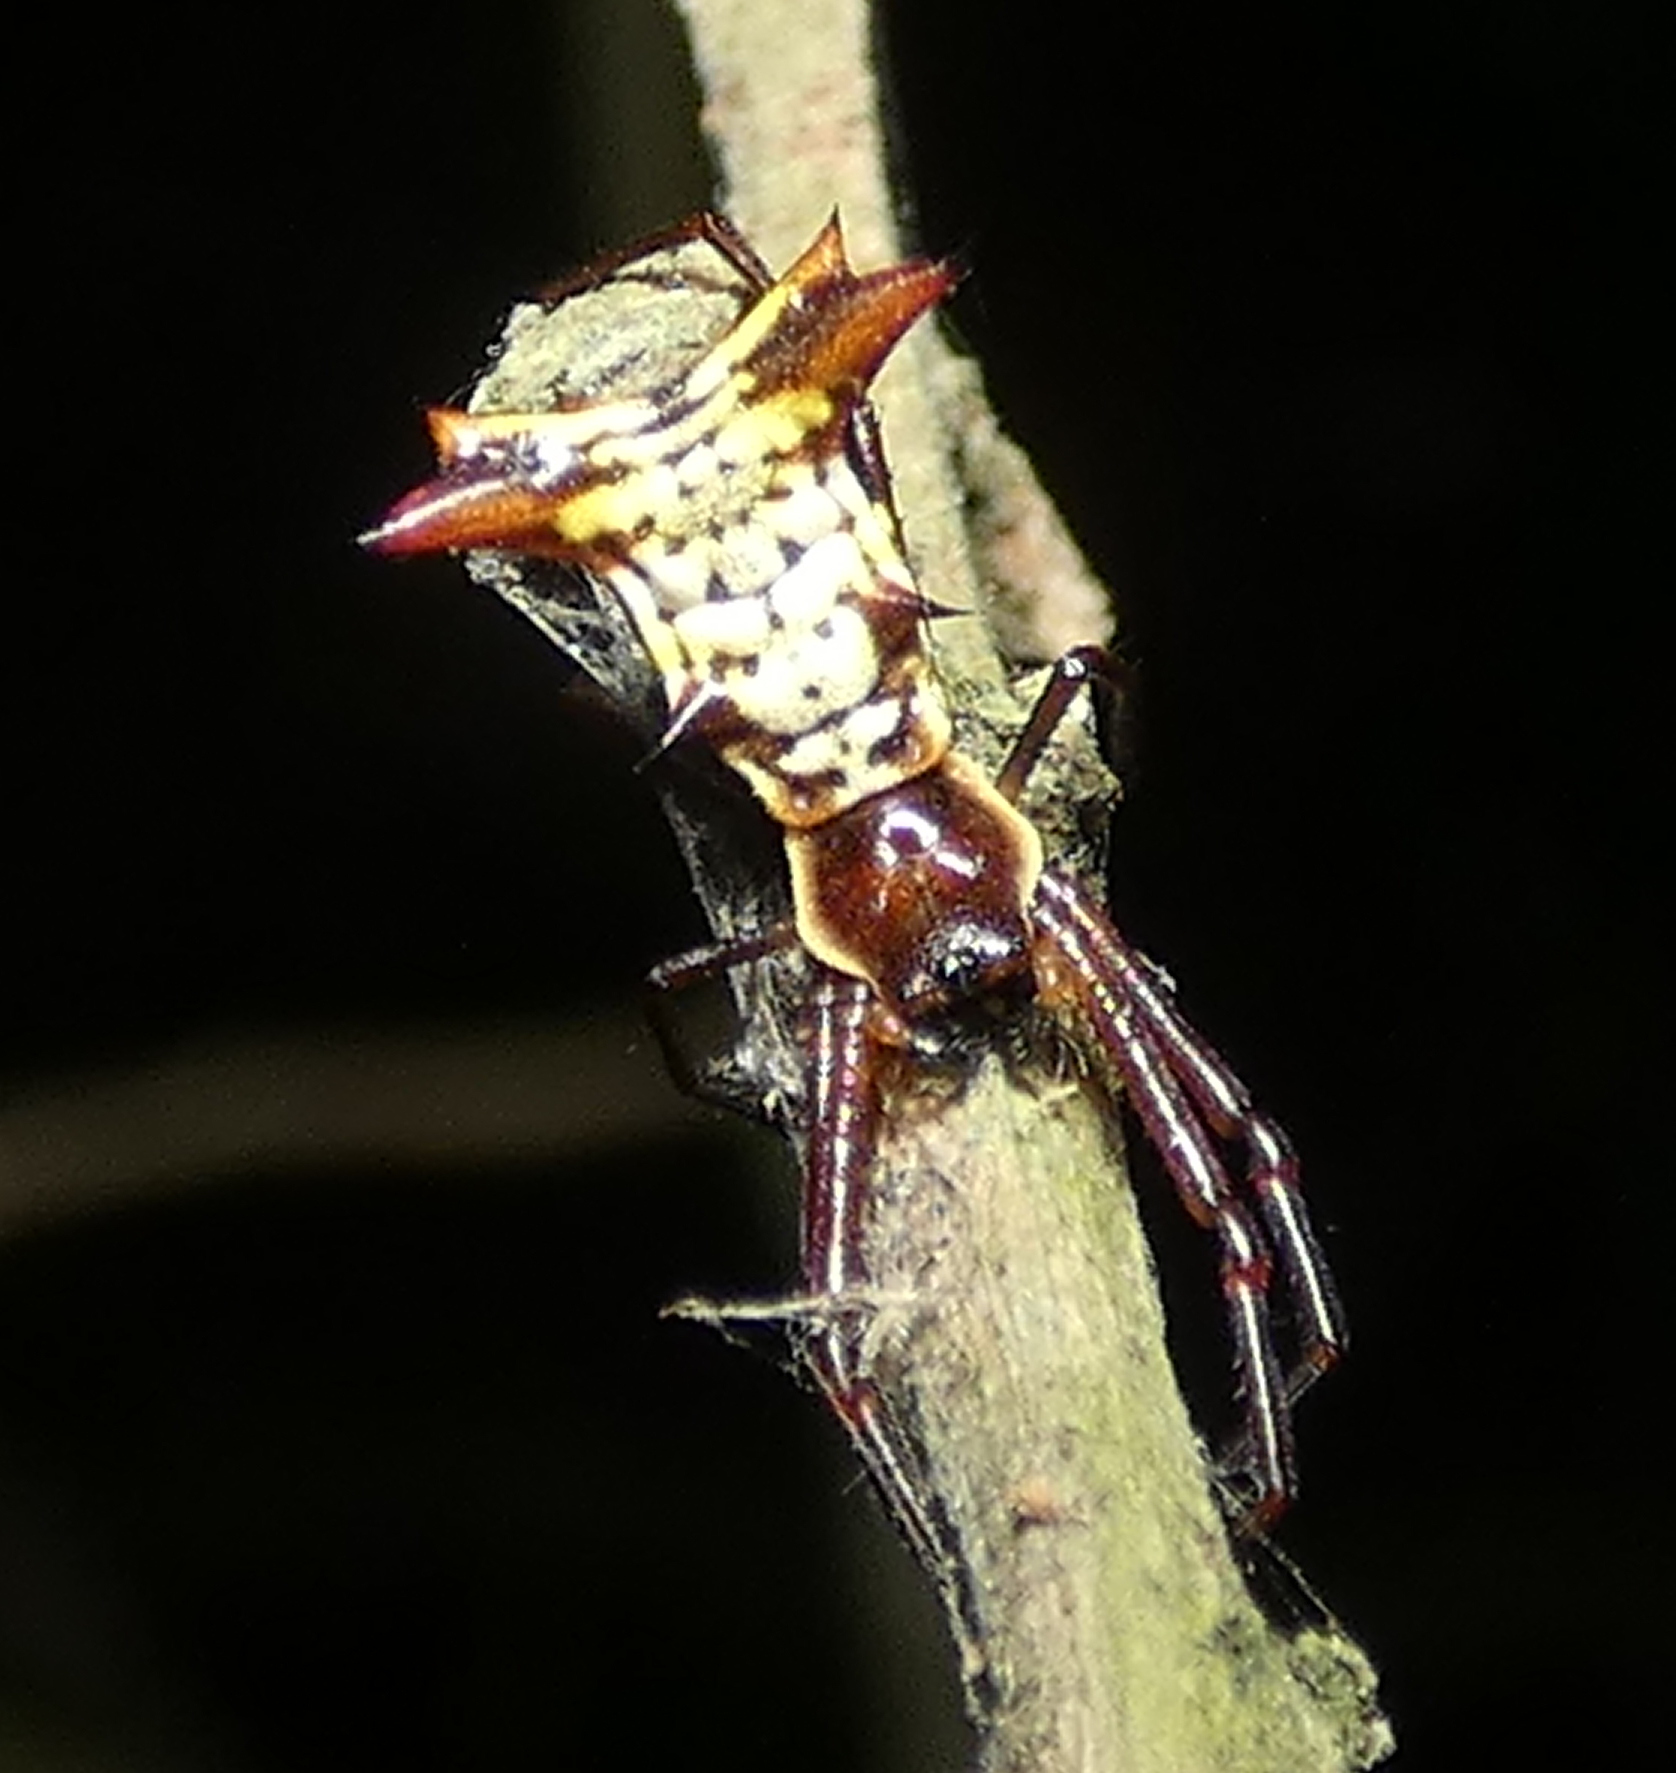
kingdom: Animalia
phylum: Arthropoda
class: Arachnida
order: Araneae
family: Araneidae
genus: Micrathena
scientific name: Micrathena fissispina
